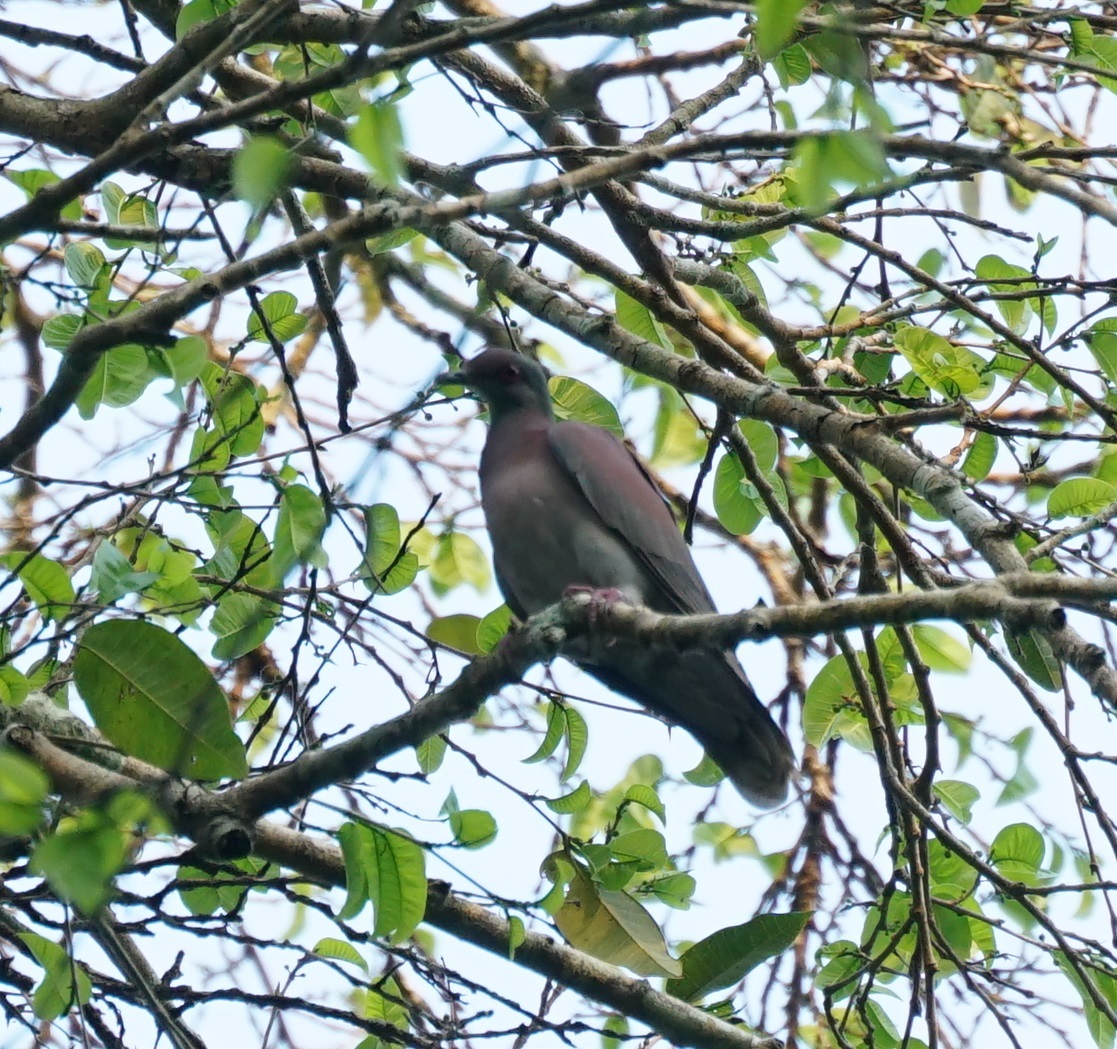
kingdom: Animalia
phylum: Chordata
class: Aves
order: Columbiformes
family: Columbidae
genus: Patagioenas
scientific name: Patagioenas cayennensis
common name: Pale-vented pigeon
